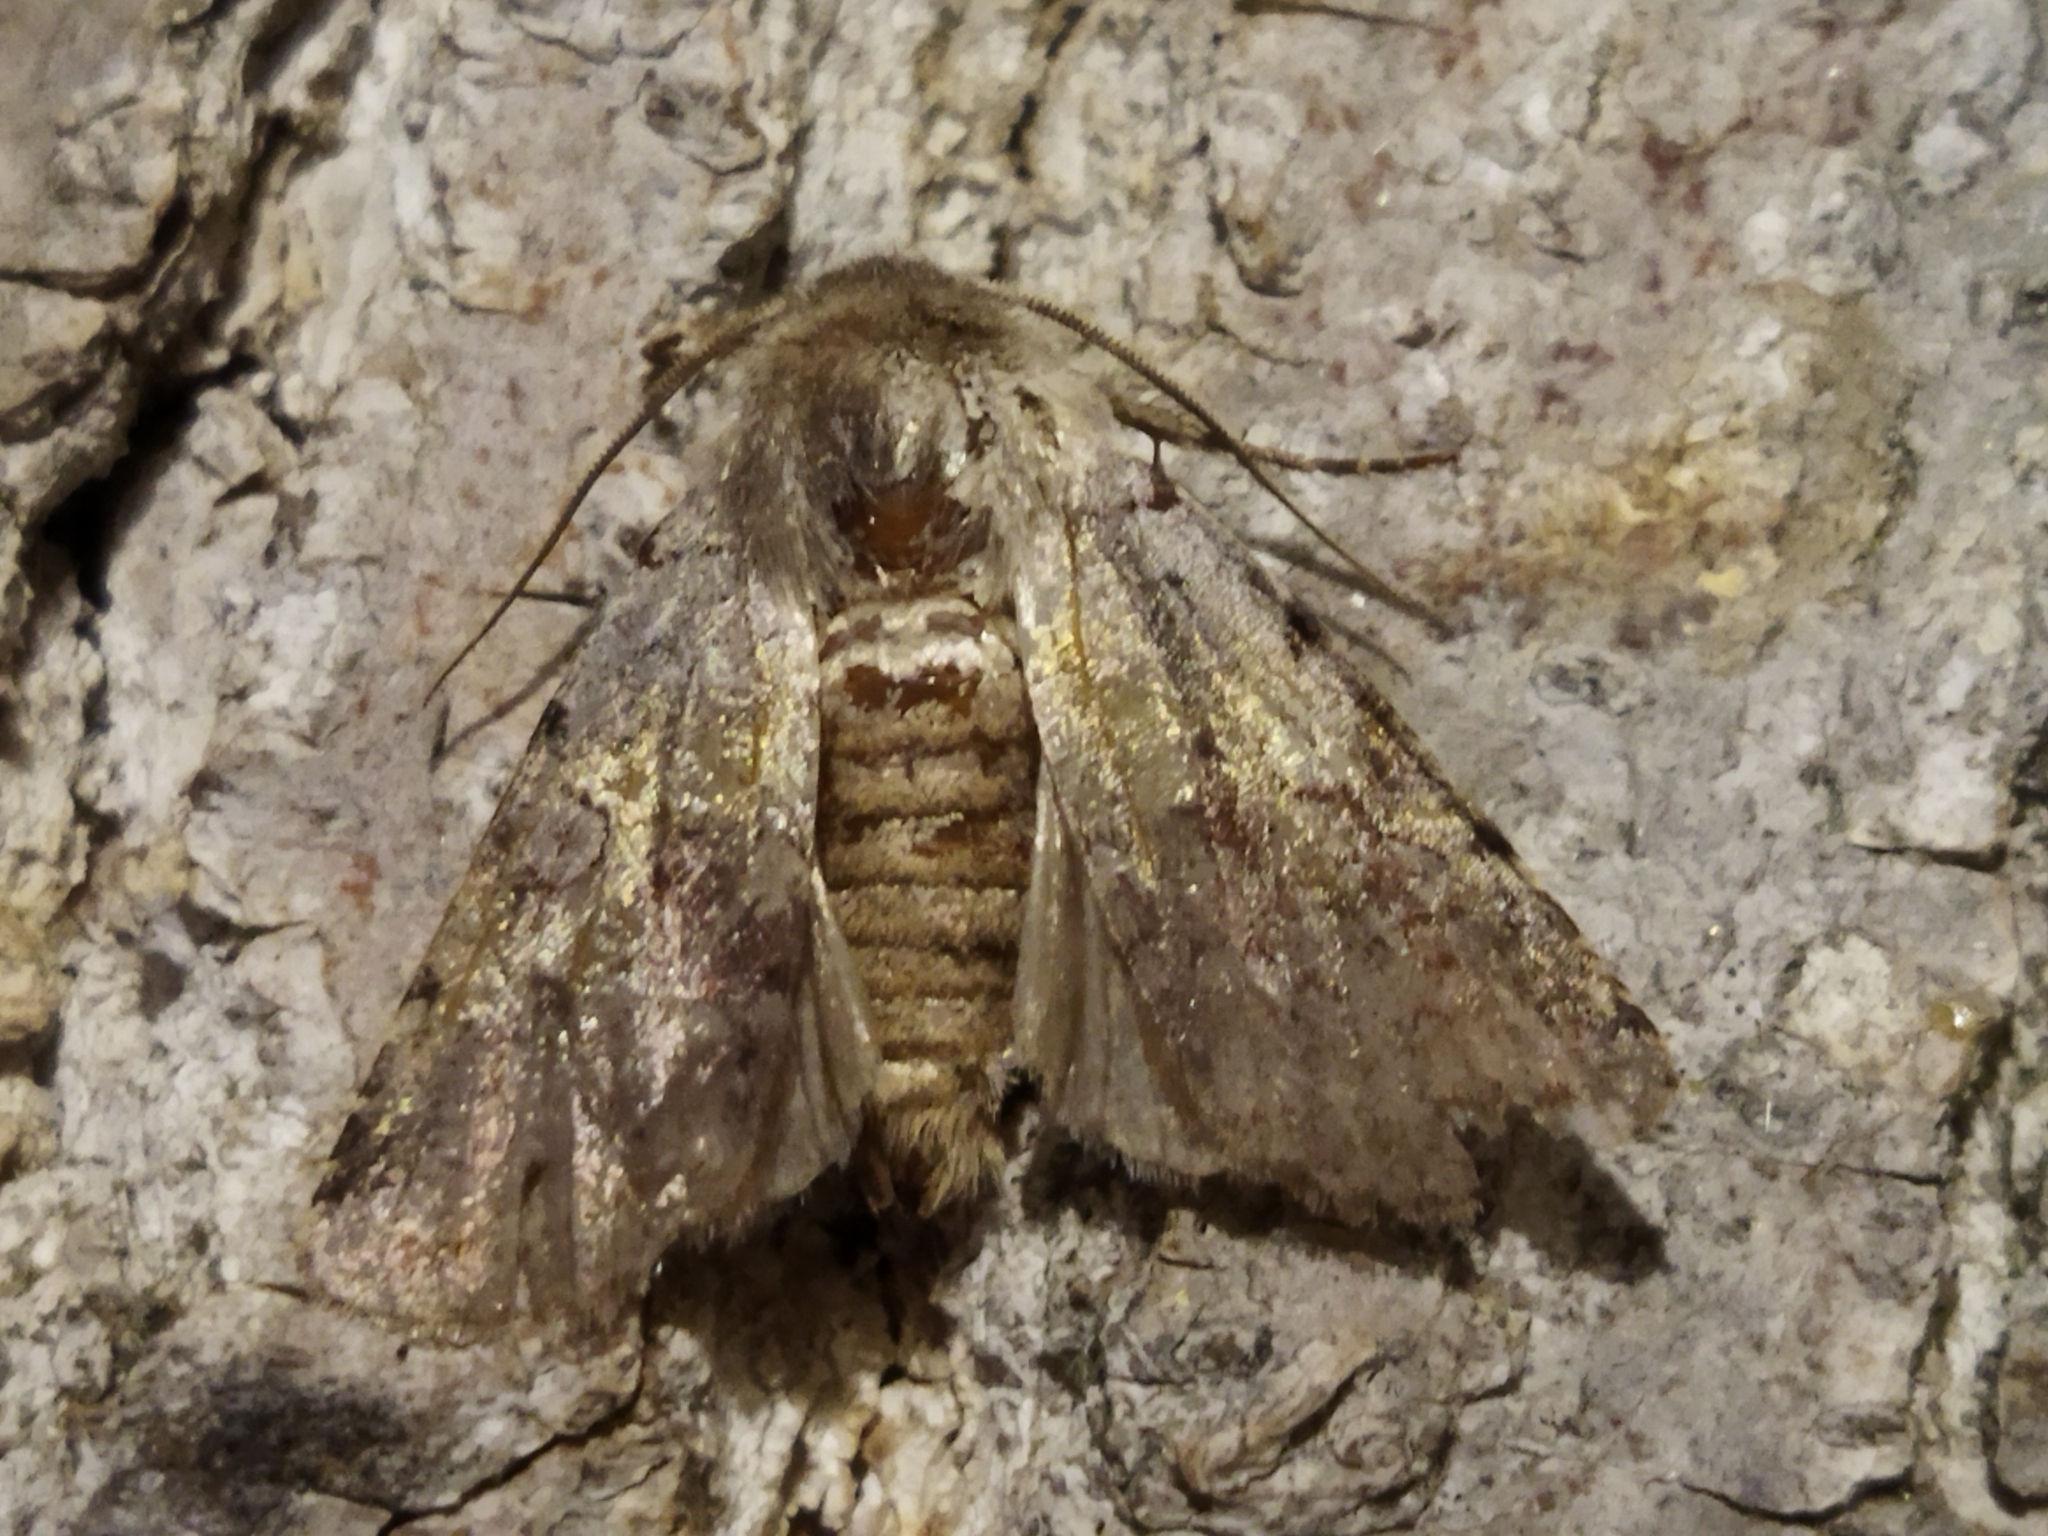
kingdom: Animalia
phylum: Arthropoda
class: Insecta
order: Lepidoptera
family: Noctuidae
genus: Cerastis
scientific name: Cerastis rubricosa
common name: Red chestnut
